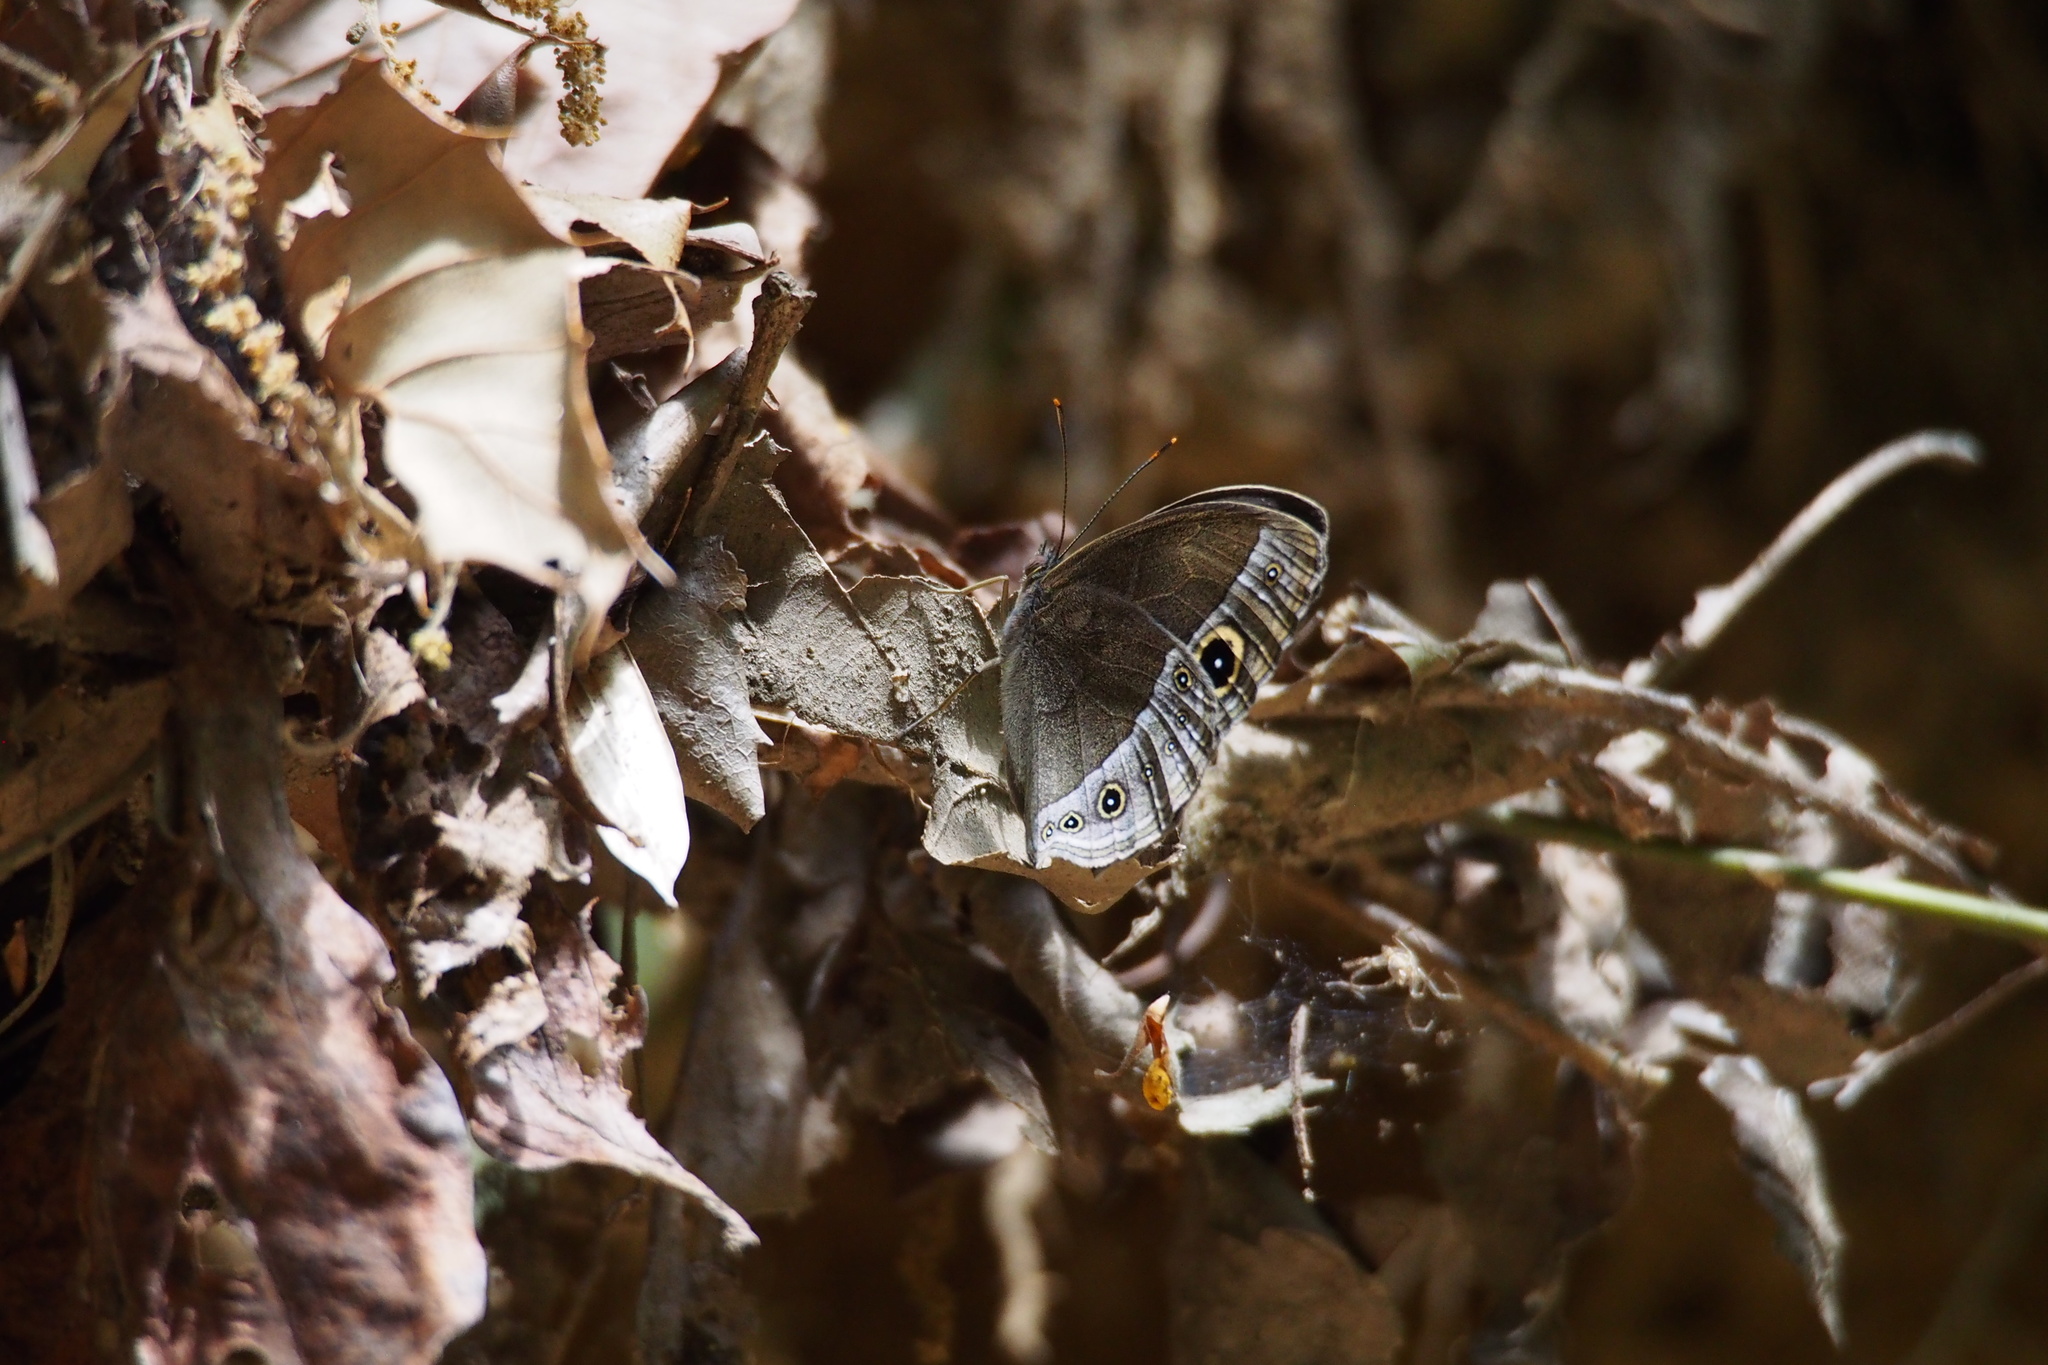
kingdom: Animalia
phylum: Arthropoda
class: Insecta
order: Lepidoptera
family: Nymphalidae
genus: Mycalesis
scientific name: Mycalesis francisca
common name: Lilacine bushbrown
